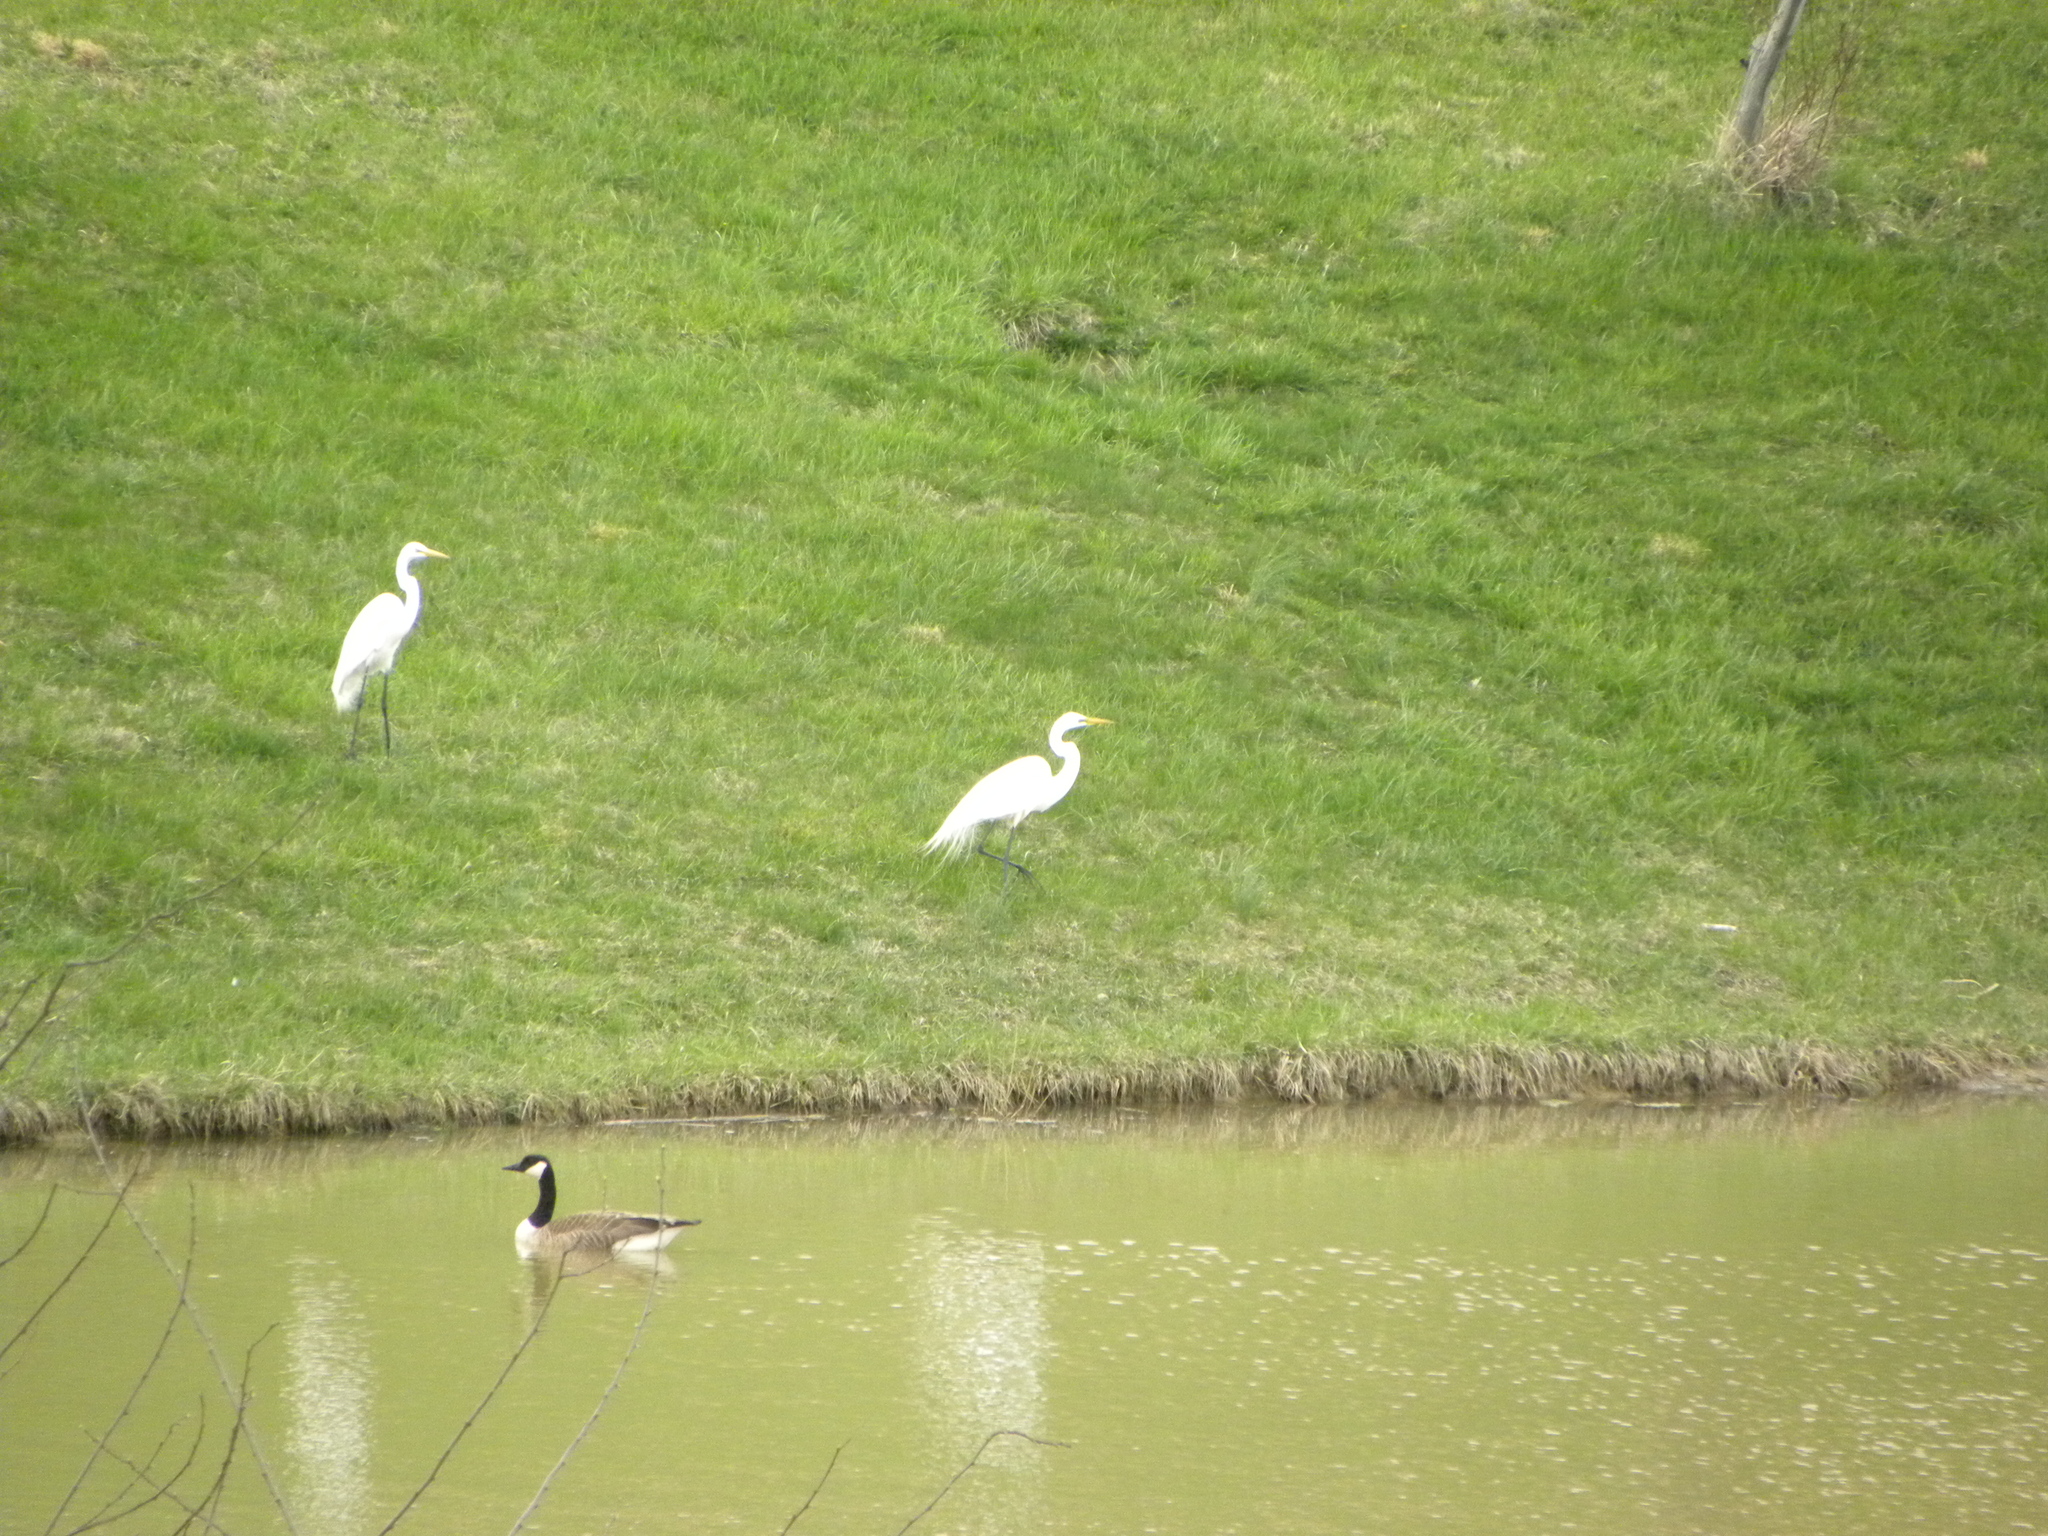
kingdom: Animalia
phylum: Chordata
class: Aves
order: Pelecaniformes
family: Ardeidae
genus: Ardea
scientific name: Ardea alba
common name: Great egret
